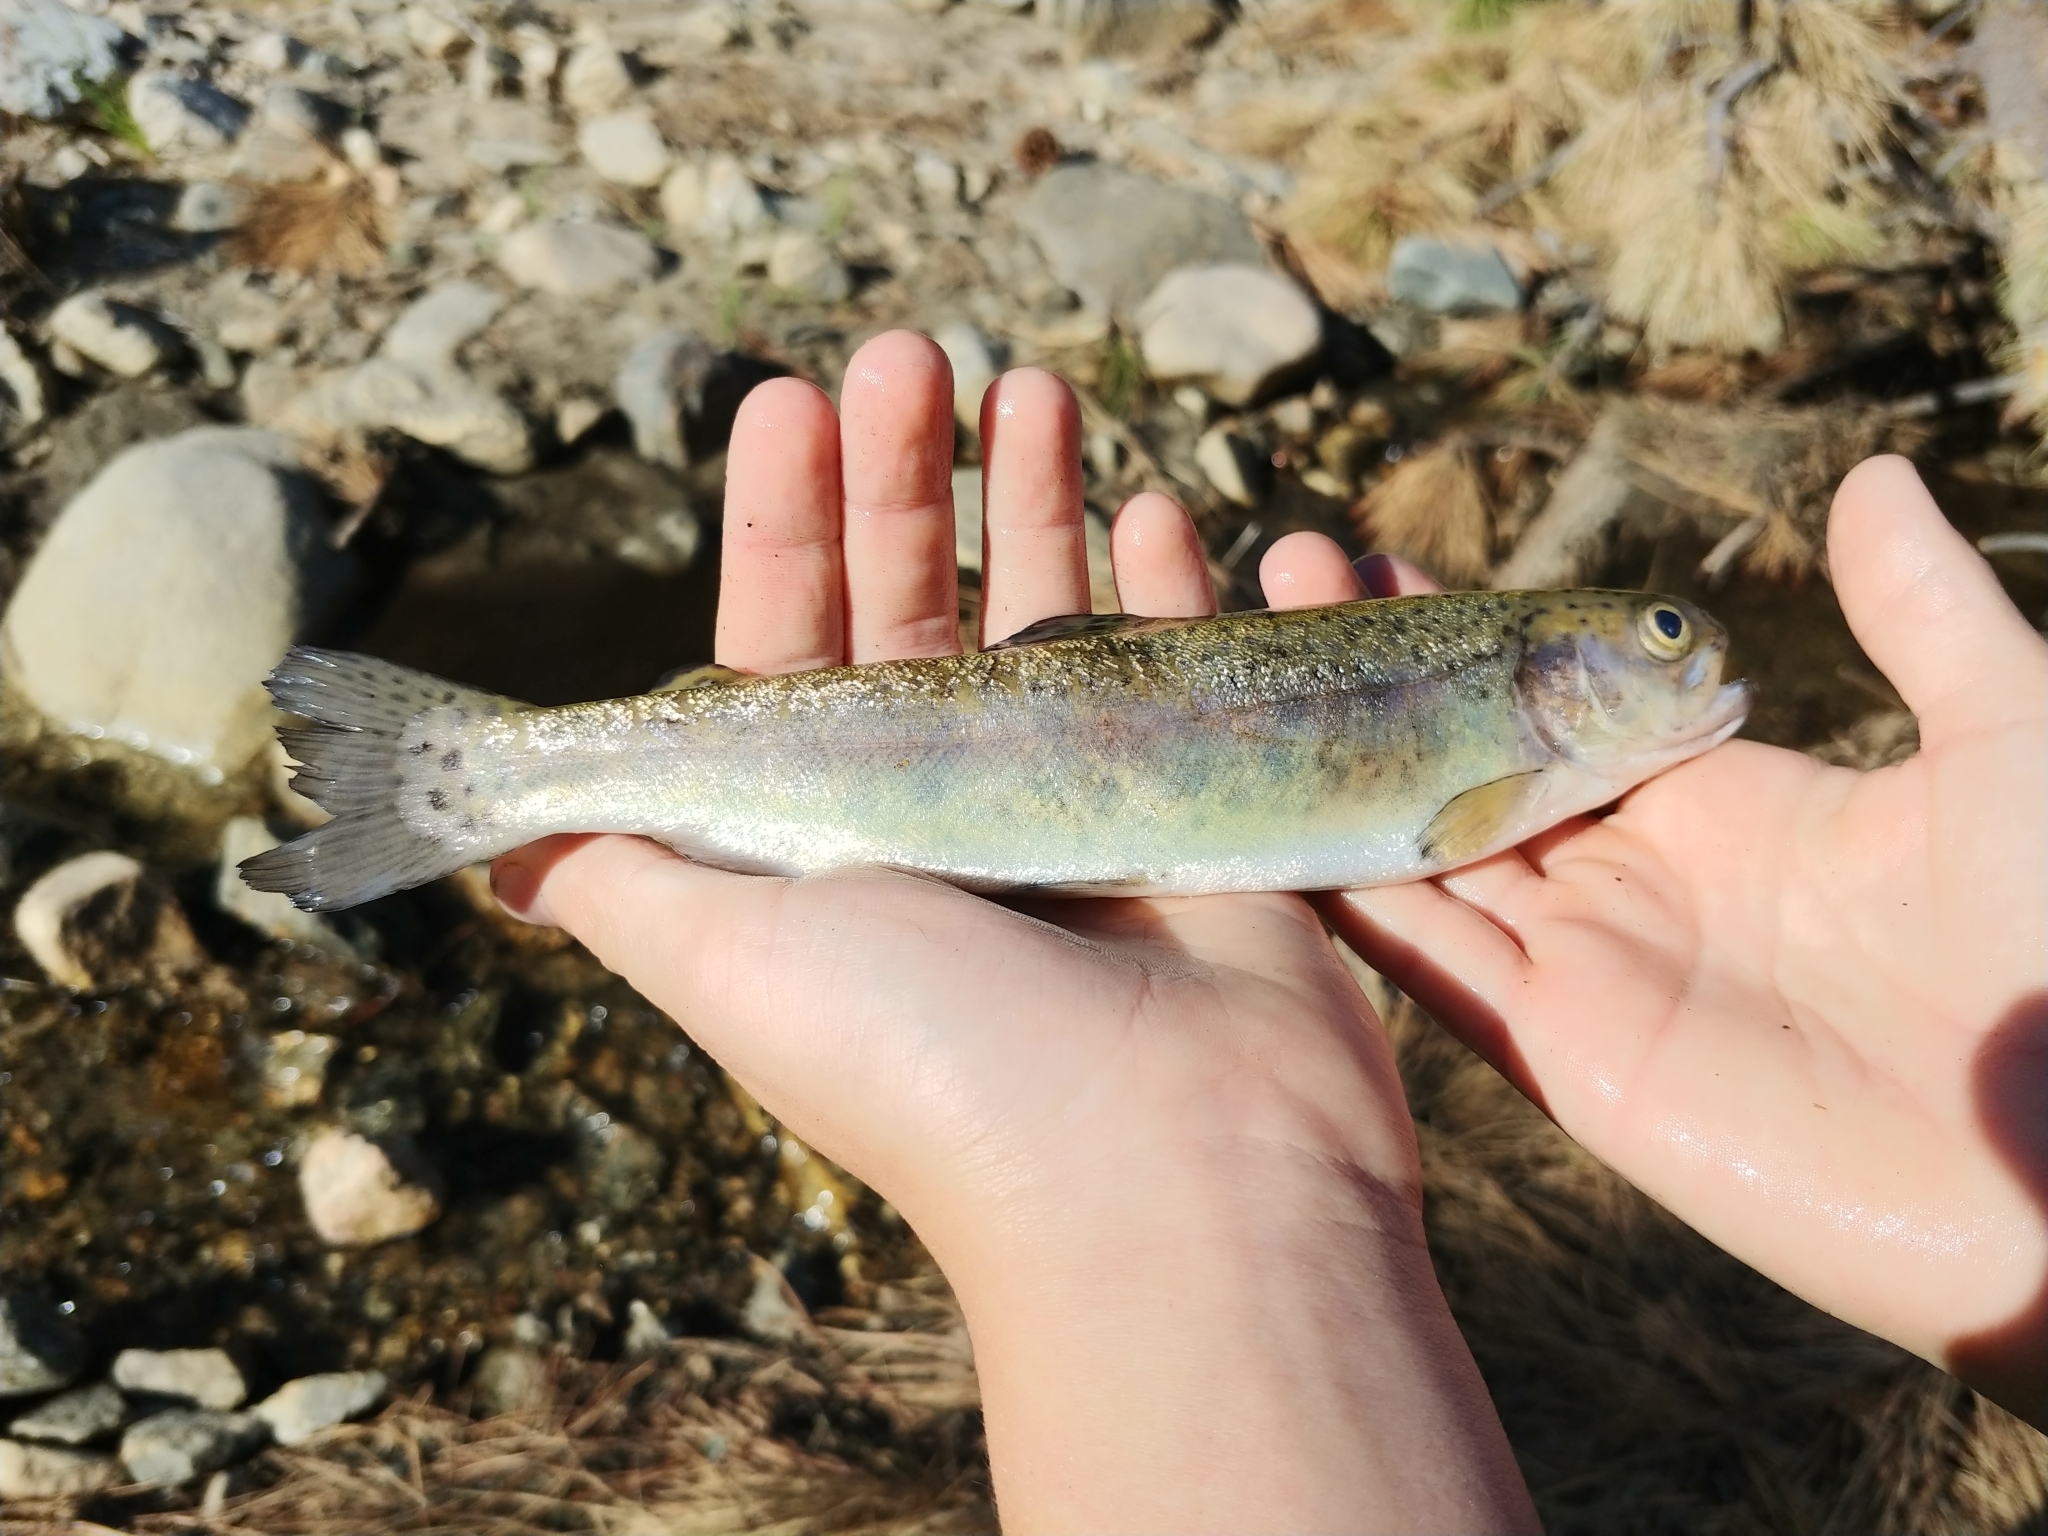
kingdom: Animalia
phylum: Chordata
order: Salmoniformes
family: Salmonidae
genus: Oncorhynchus
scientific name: Oncorhynchus mykiss
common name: Rainbow trout
